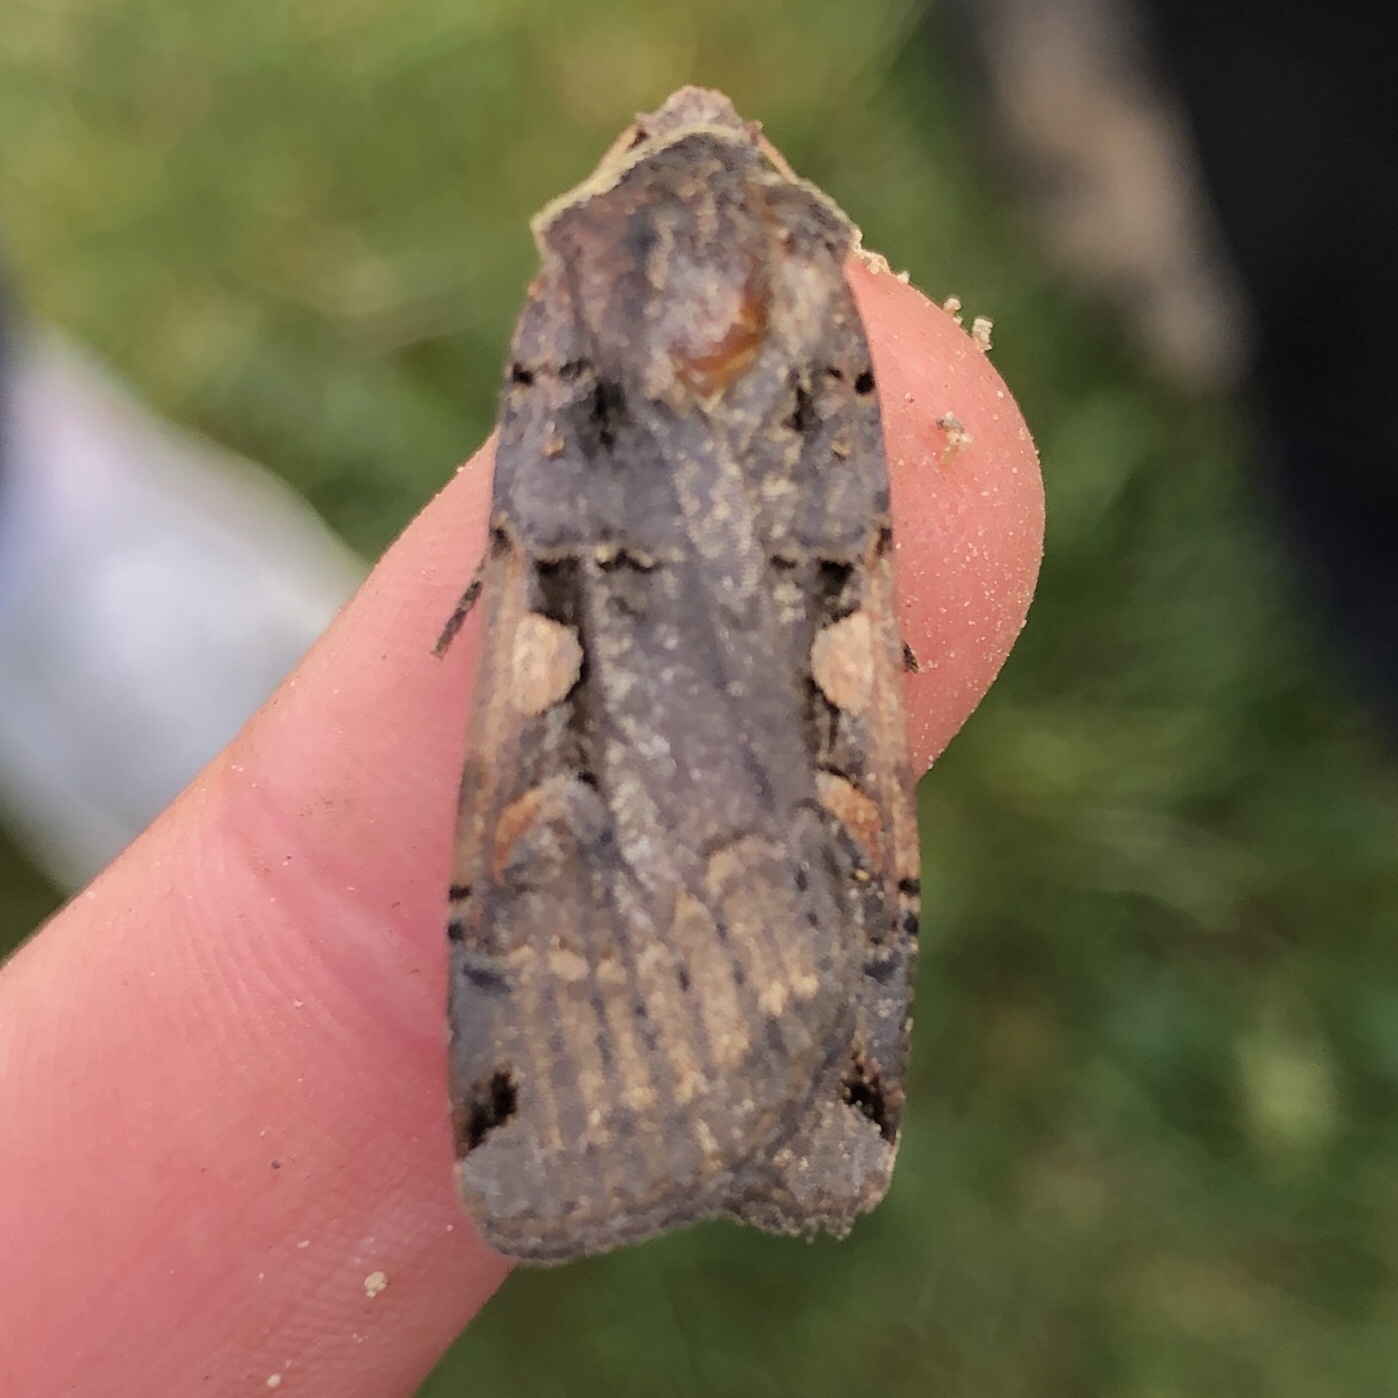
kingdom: Animalia
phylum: Arthropoda
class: Insecta
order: Lepidoptera
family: Noctuidae
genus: Xestia
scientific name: Xestia dolosa
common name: Cutworm moth
